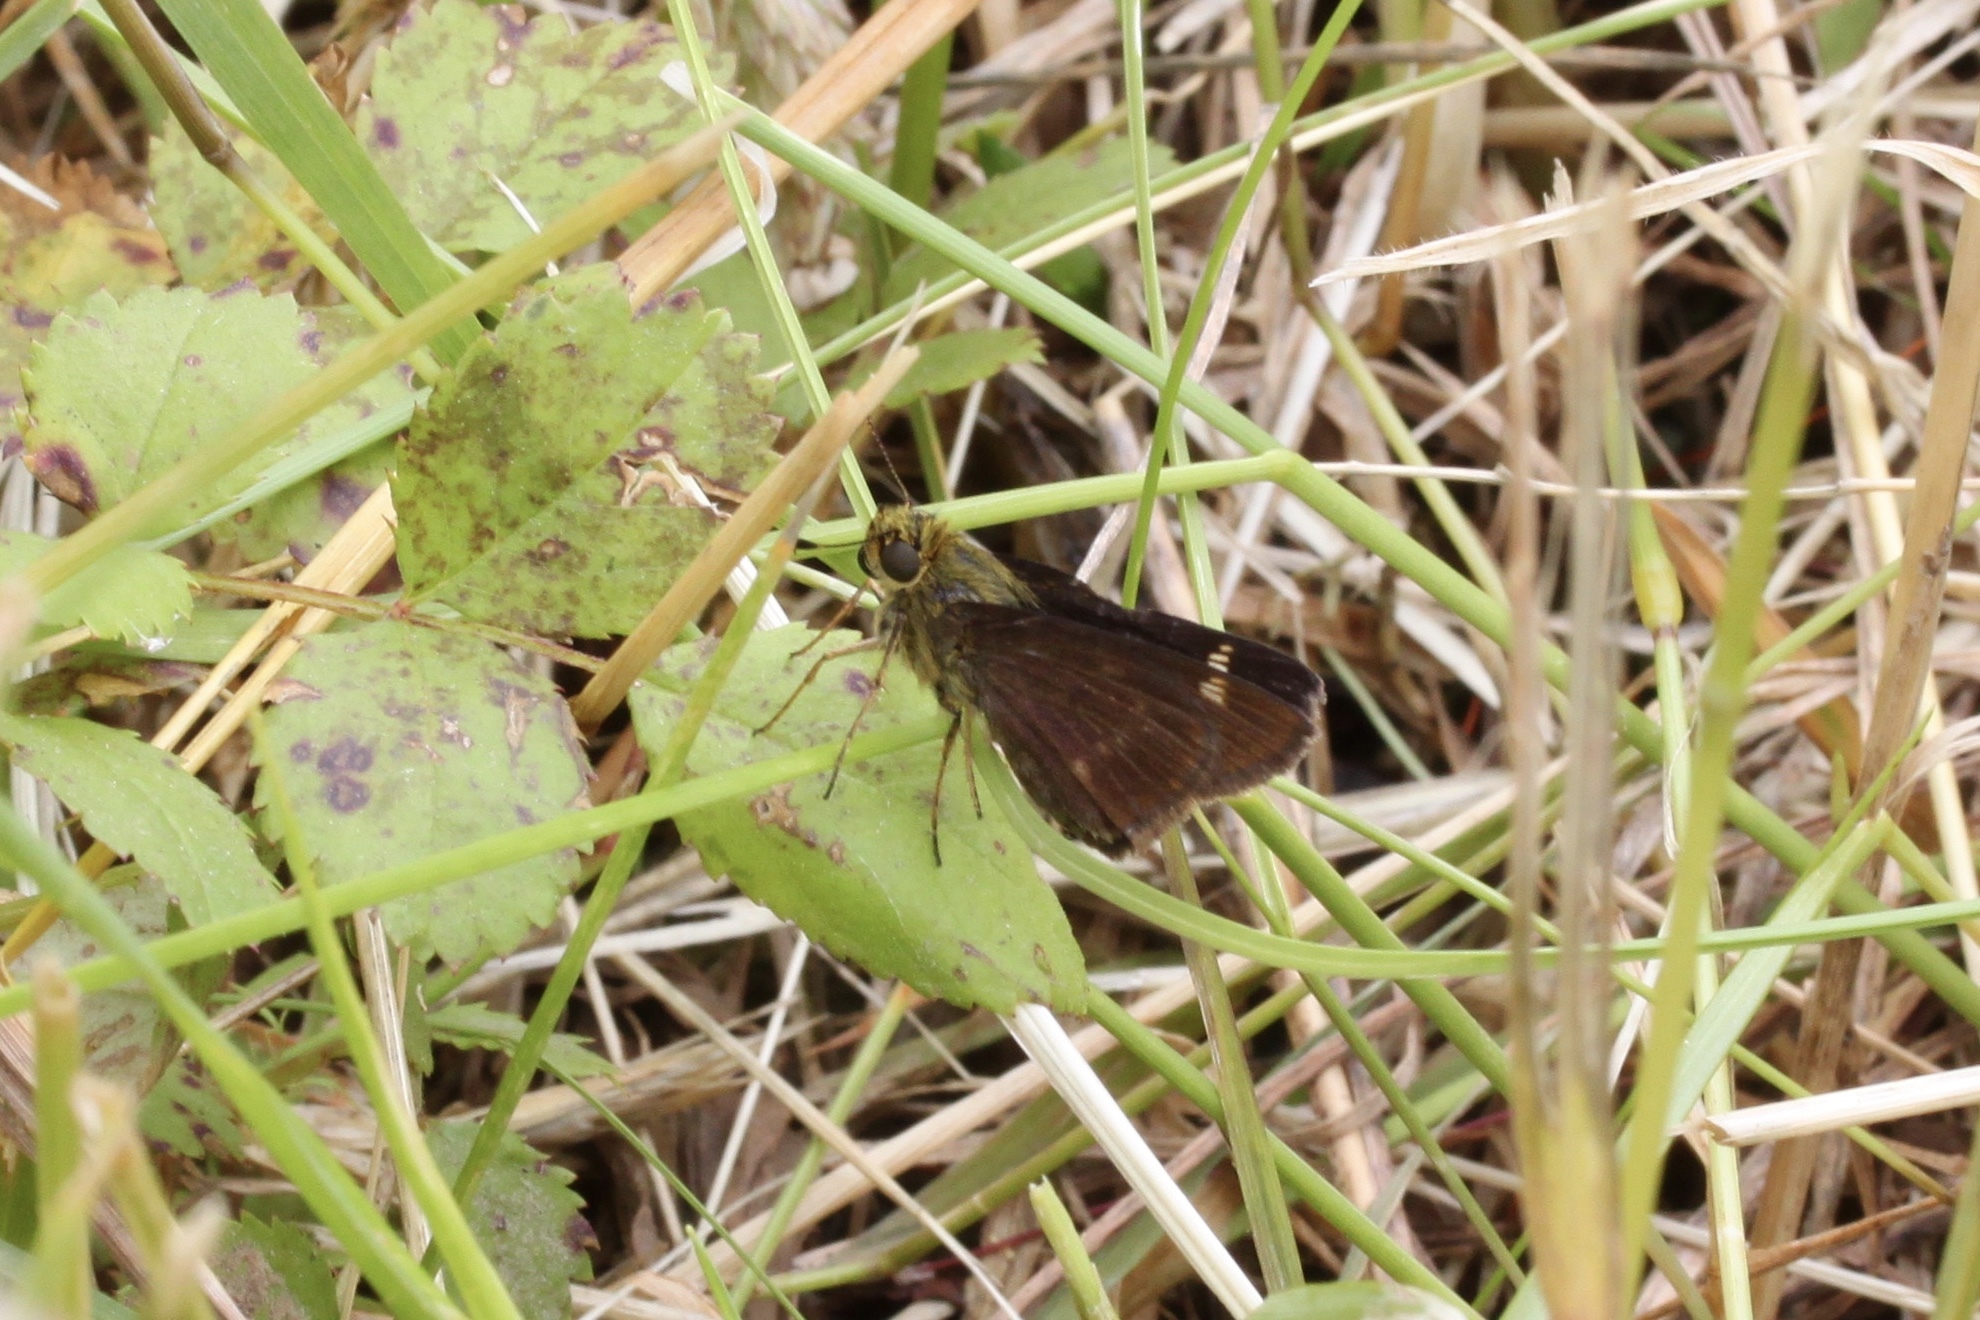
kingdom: Animalia
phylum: Arthropoda
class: Insecta
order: Lepidoptera
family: Hesperiidae
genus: Vernia
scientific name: Vernia verna
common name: Little glassywing
